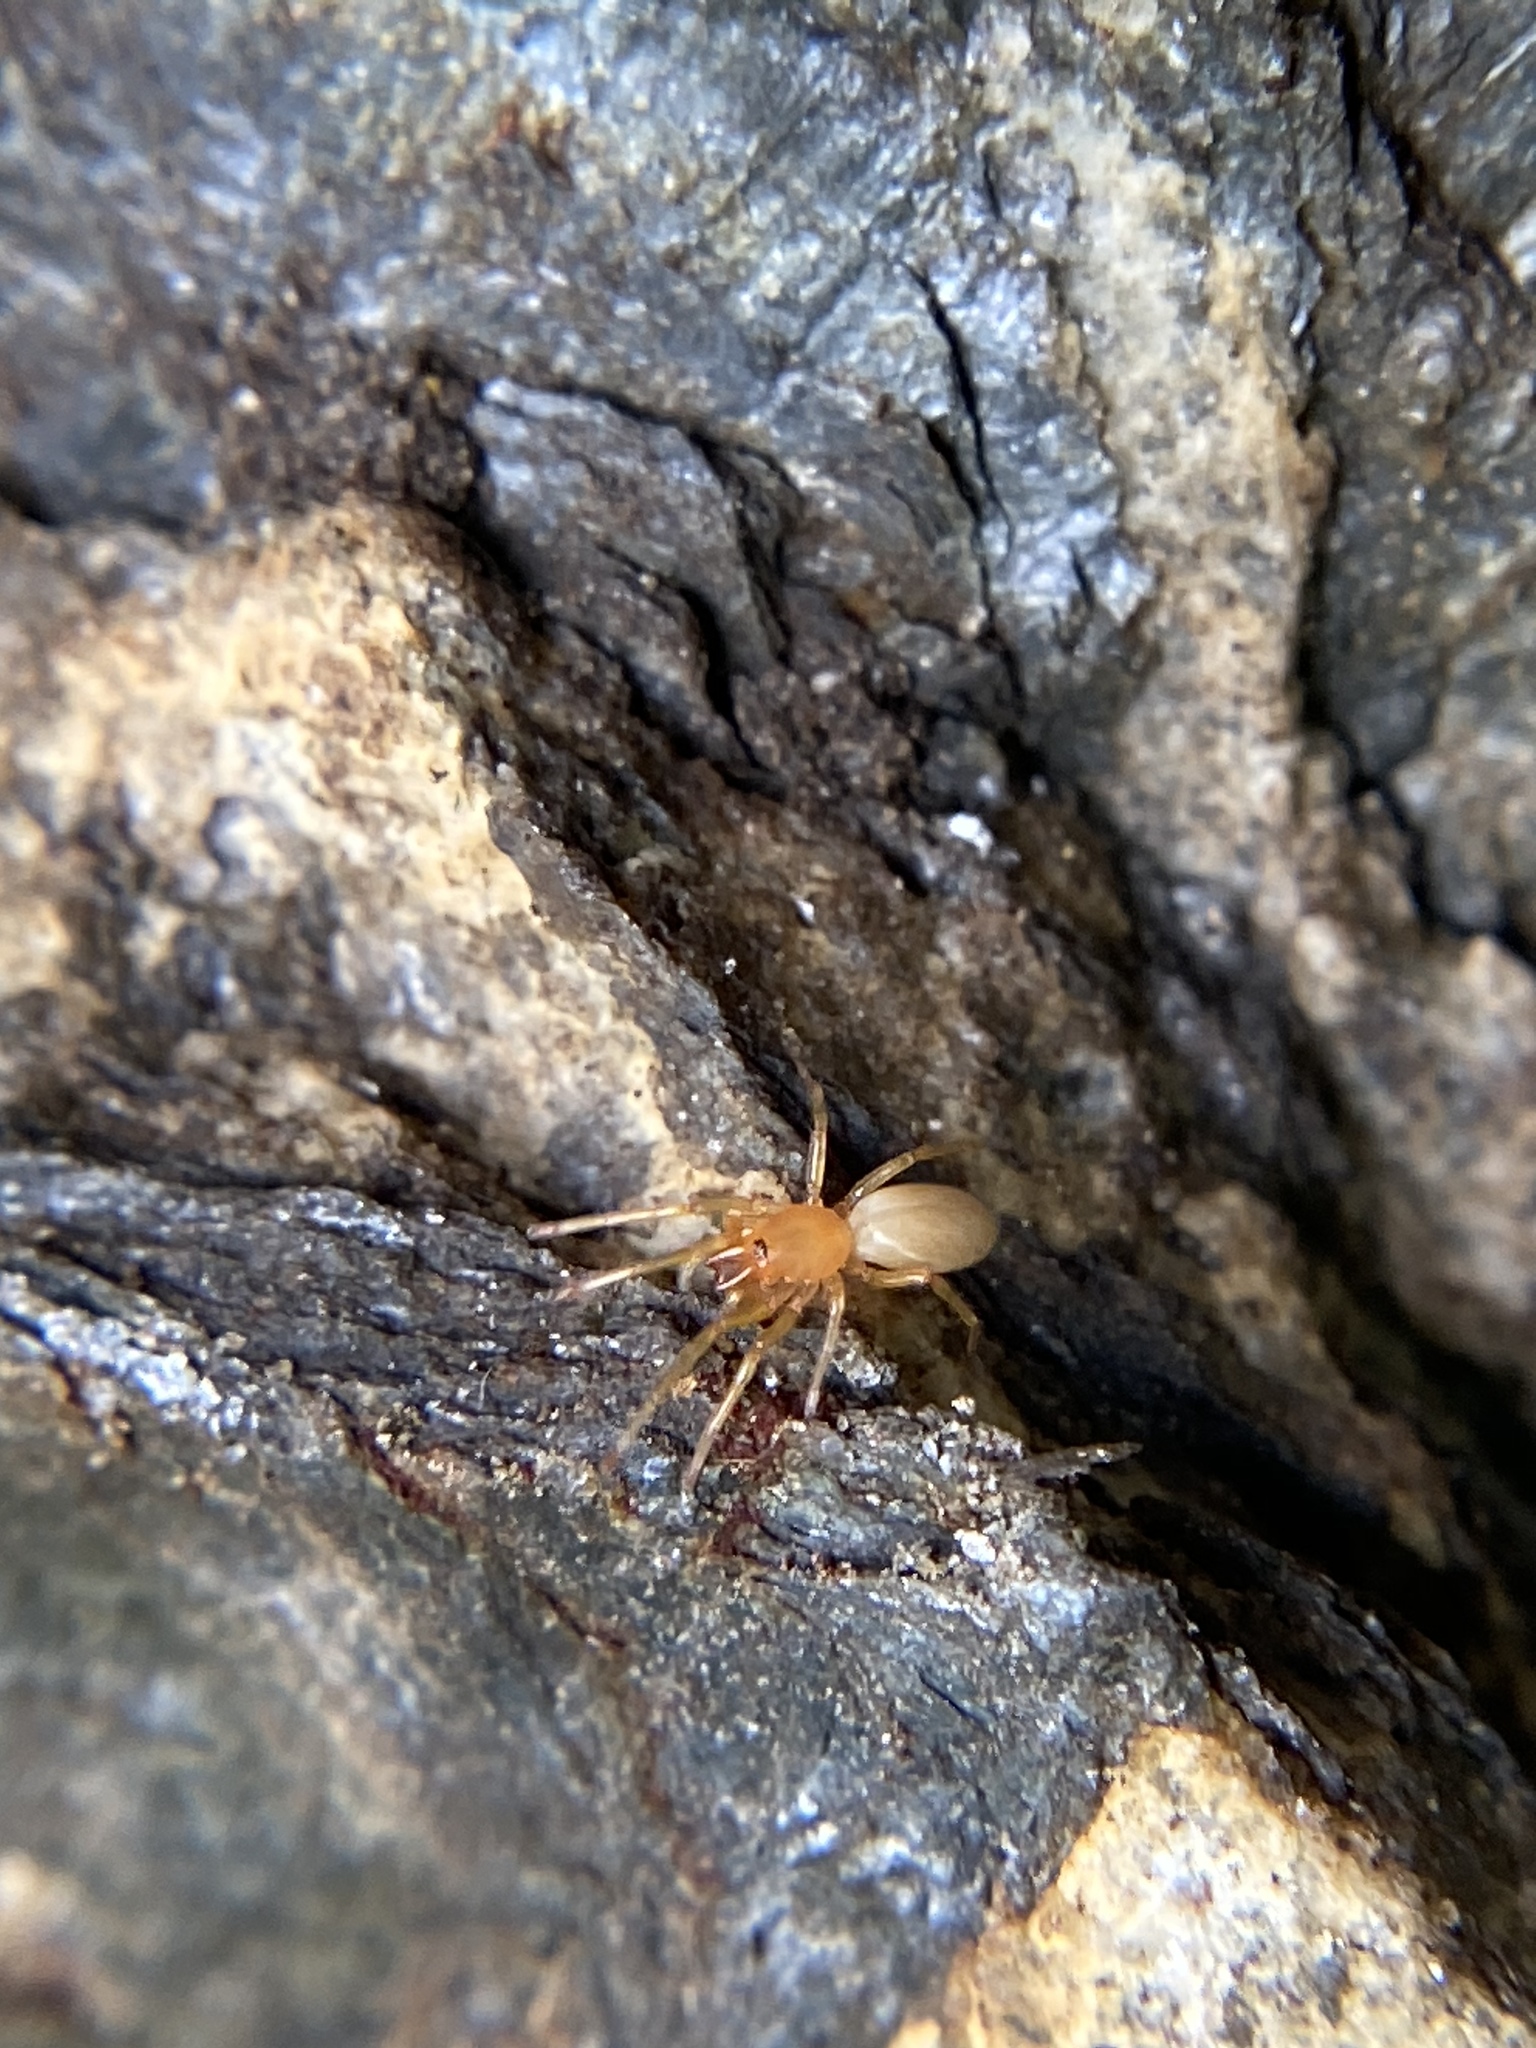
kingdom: Animalia
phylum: Arthropoda
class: Arachnida
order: Araneae
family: Dysderidae
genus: Dysdera
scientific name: Dysdera crocata
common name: Woodlouse spider
